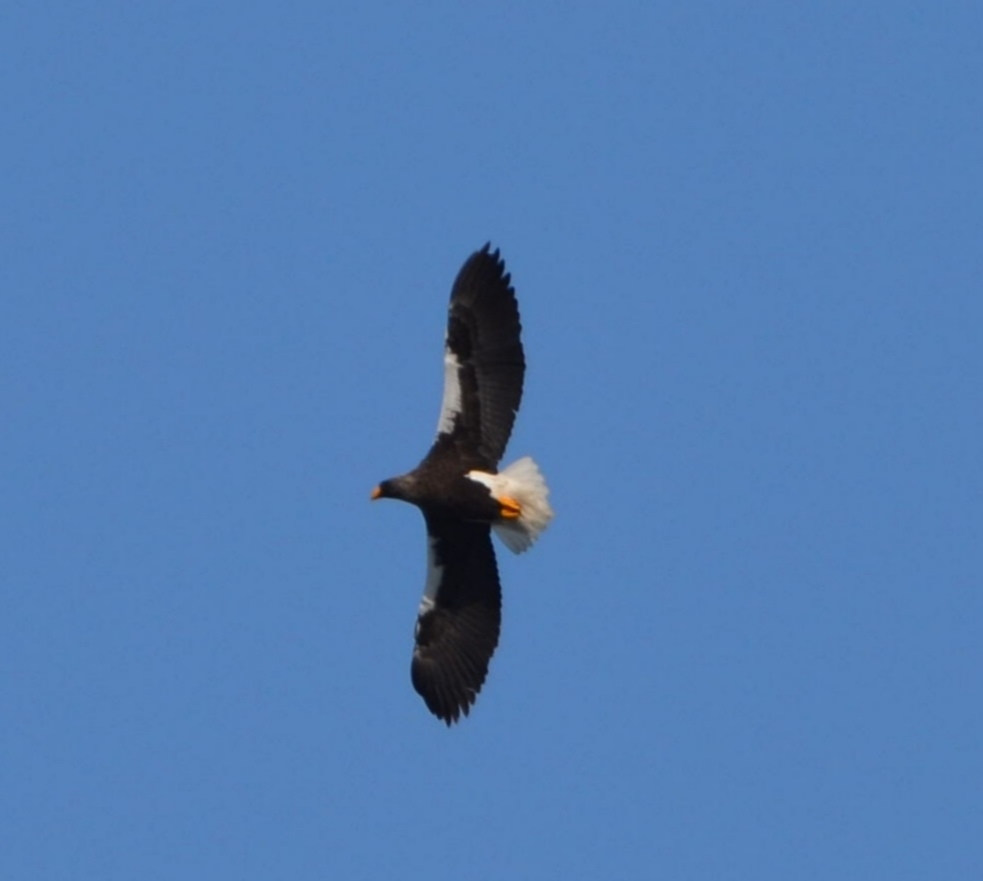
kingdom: Animalia
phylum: Chordata
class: Aves
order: Accipitriformes
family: Accipitridae
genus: Haliaeetus
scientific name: Haliaeetus pelagicus
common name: Steller's sea eagle
